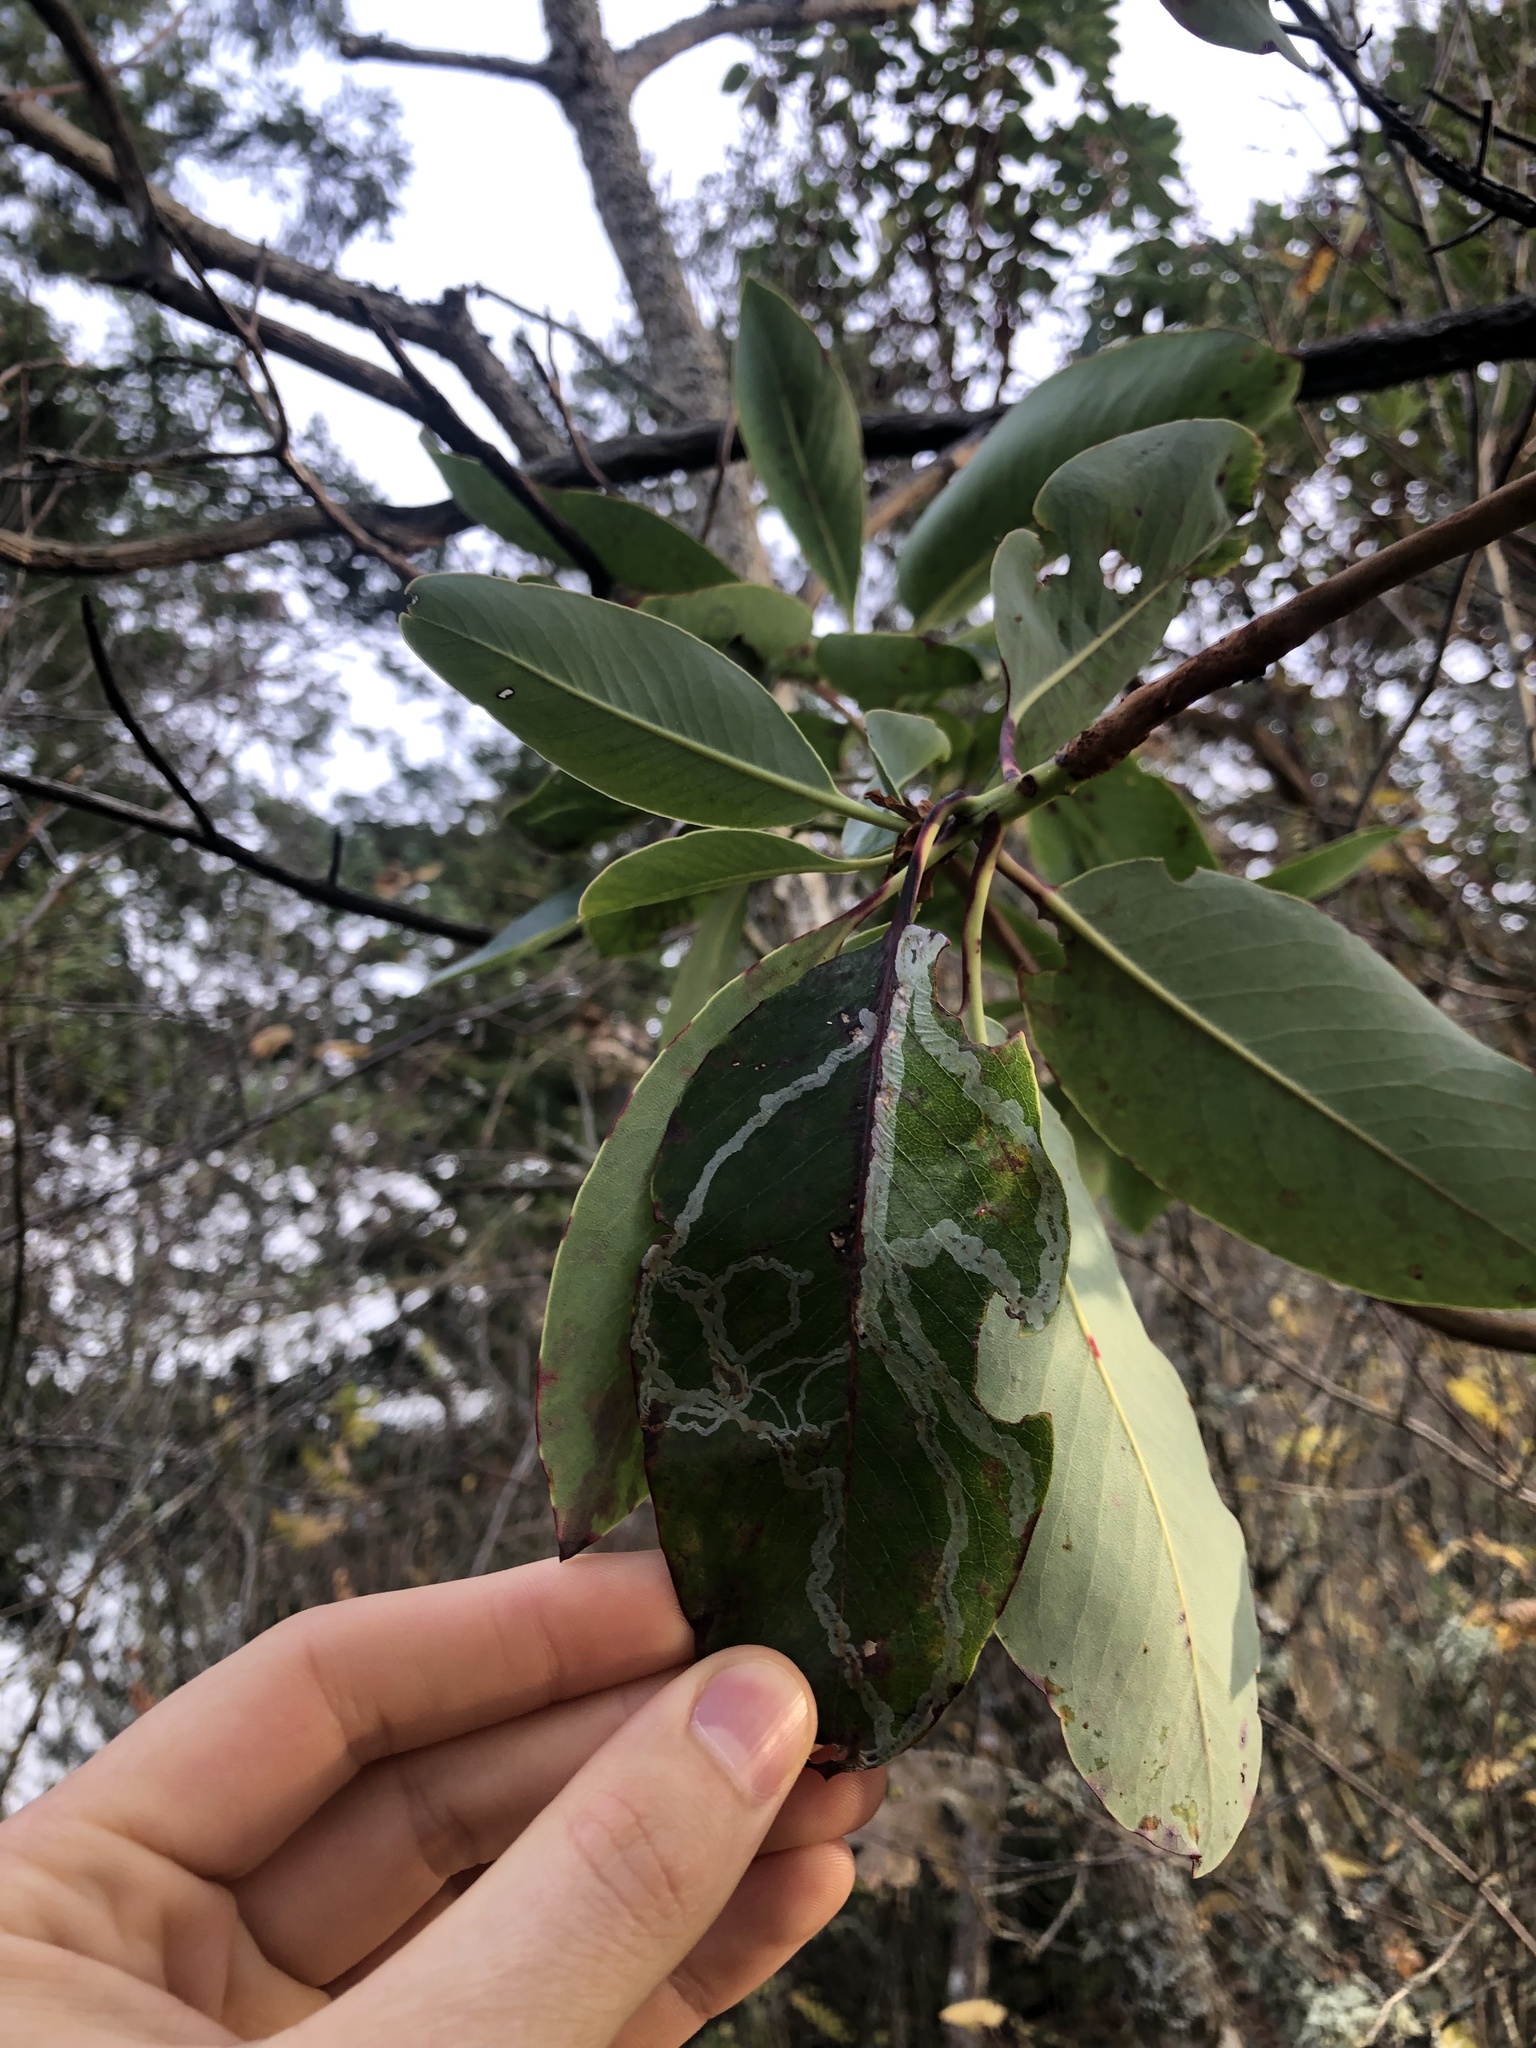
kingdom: Animalia
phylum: Arthropoda
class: Insecta
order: Lepidoptera
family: Gracillariidae
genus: Marmara
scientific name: Marmara arbutiella
